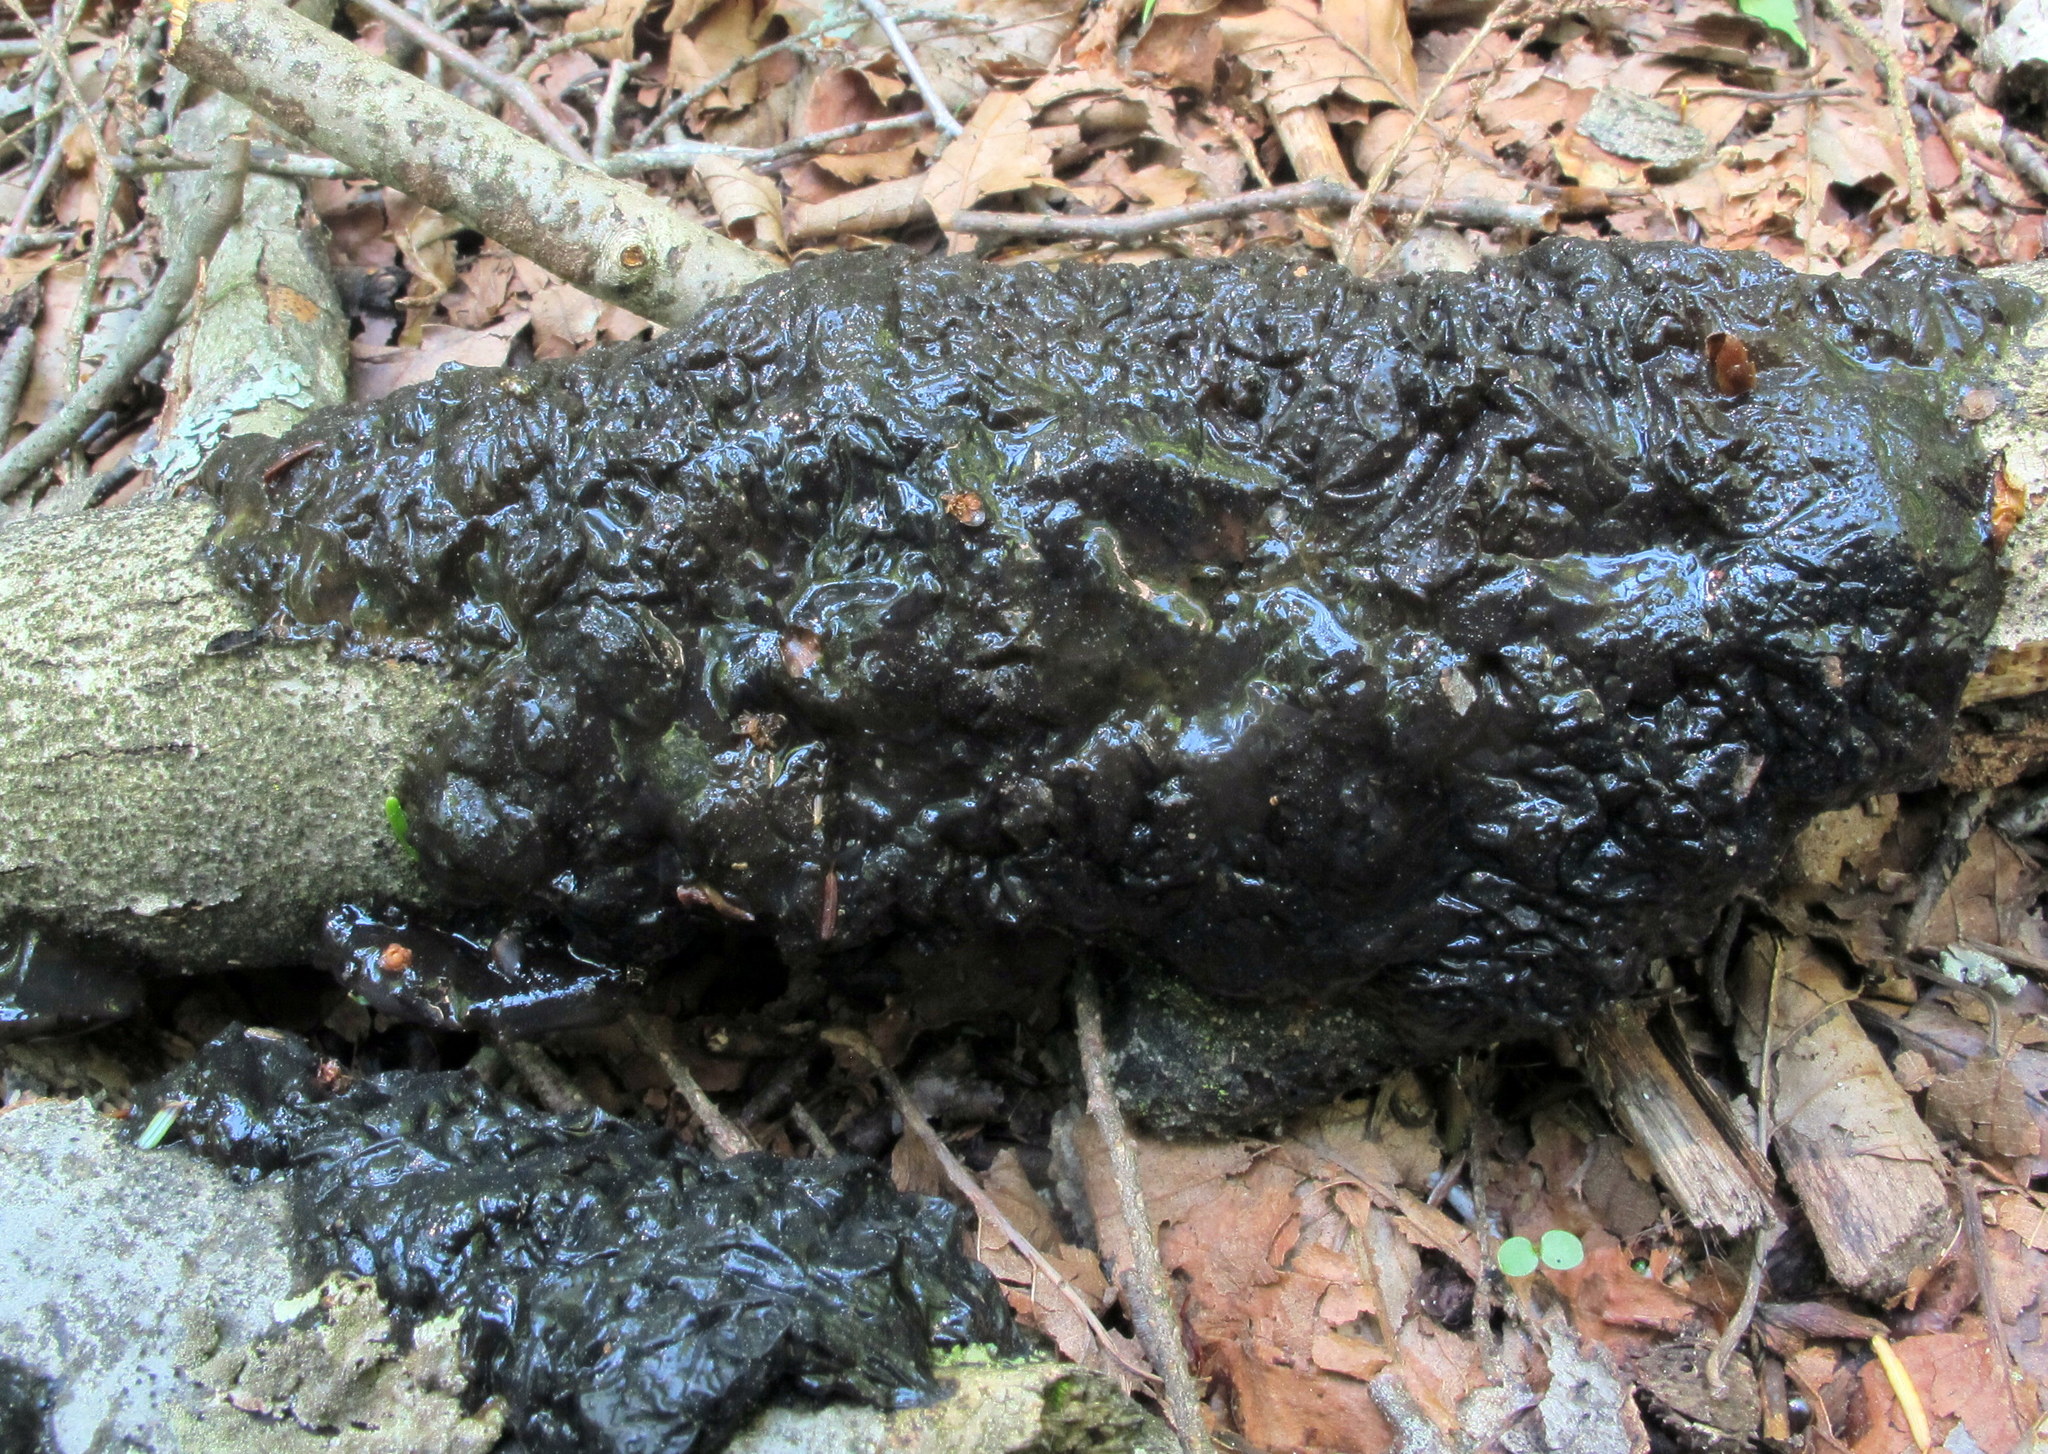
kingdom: Fungi
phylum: Basidiomycota
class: Agaricomycetes
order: Auriculariales
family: Auriculariaceae
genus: Exidia
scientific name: Exidia glandulosa
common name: Witches' butter
